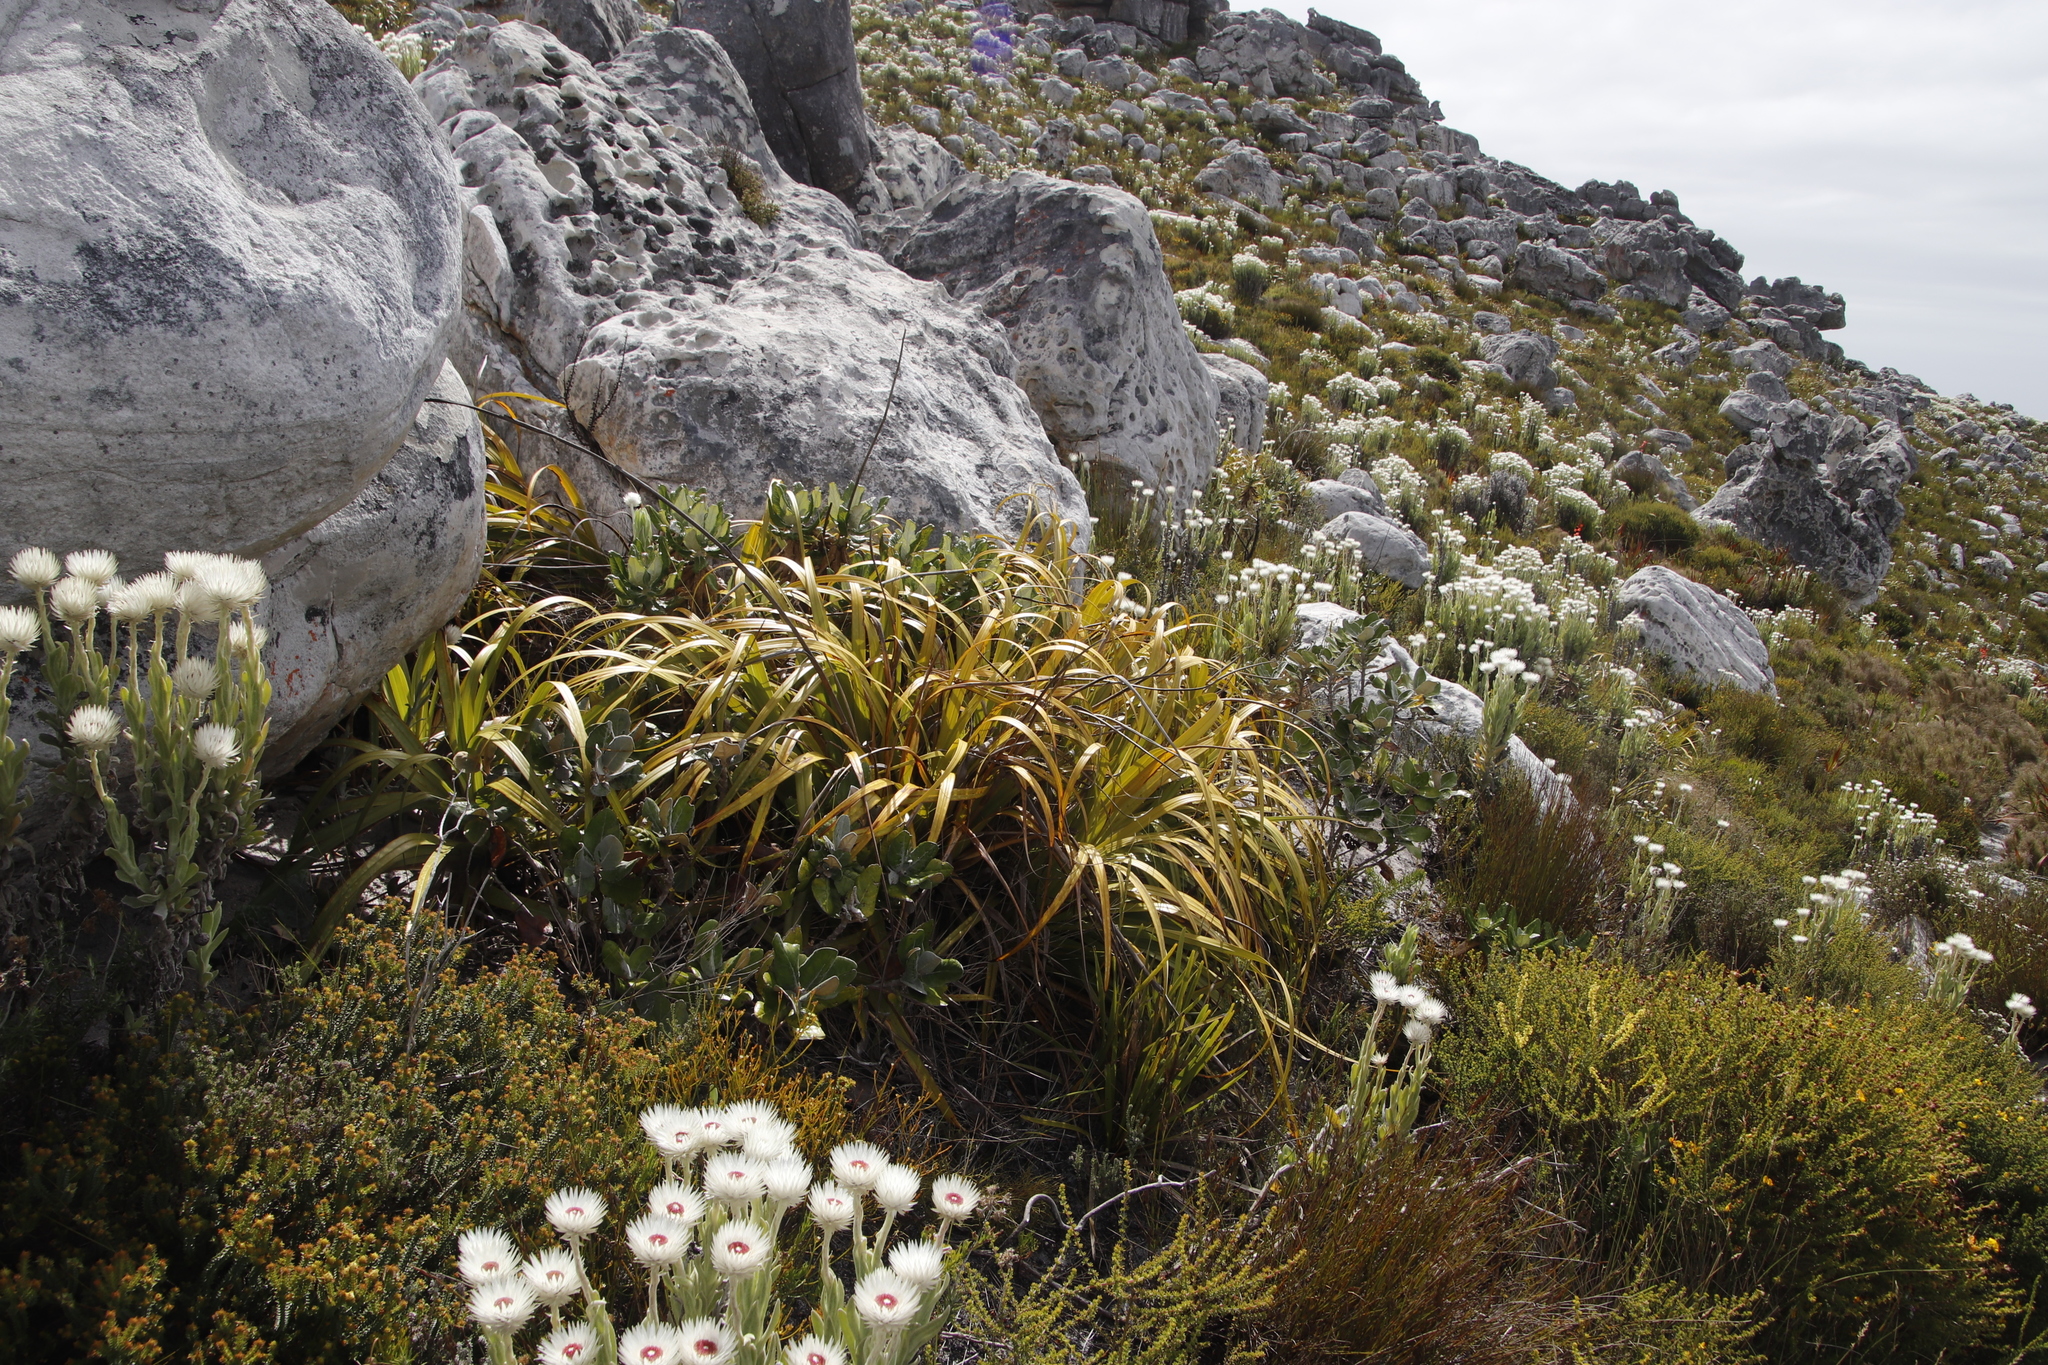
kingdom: Plantae
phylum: Tracheophyta
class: Liliopsida
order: Poales
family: Cyperaceae
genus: Tetraria
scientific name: Tetraria thermalis
